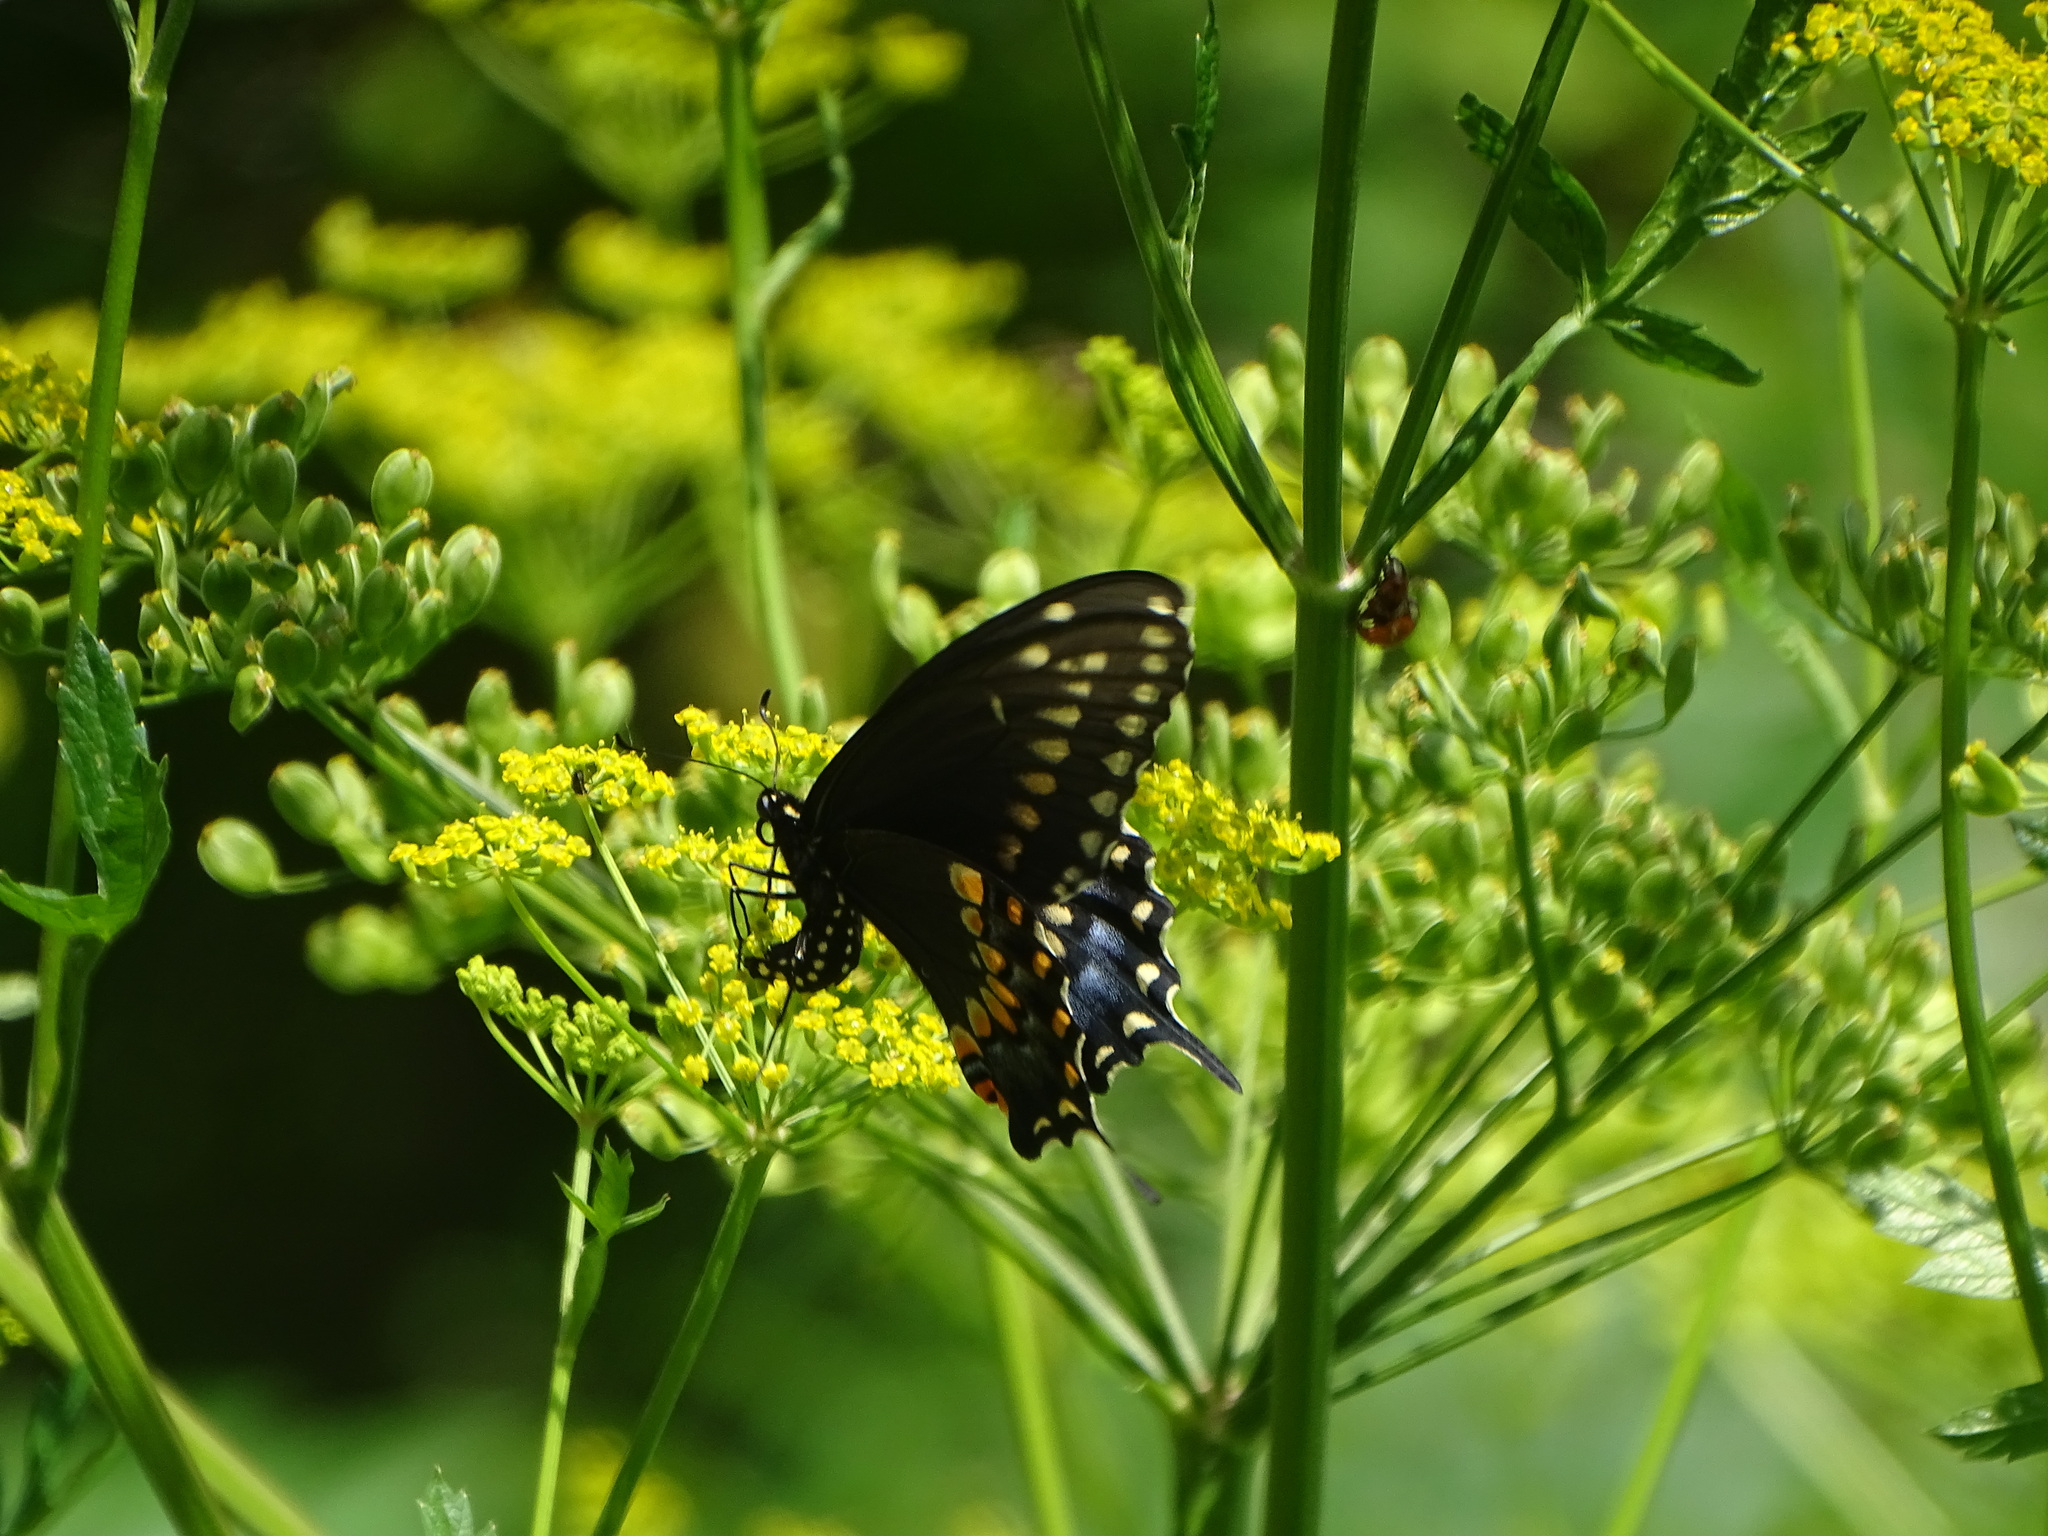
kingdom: Animalia
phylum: Arthropoda
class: Insecta
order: Lepidoptera
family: Papilionidae
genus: Papilio
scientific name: Papilio polyxenes
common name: Black swallowtail
